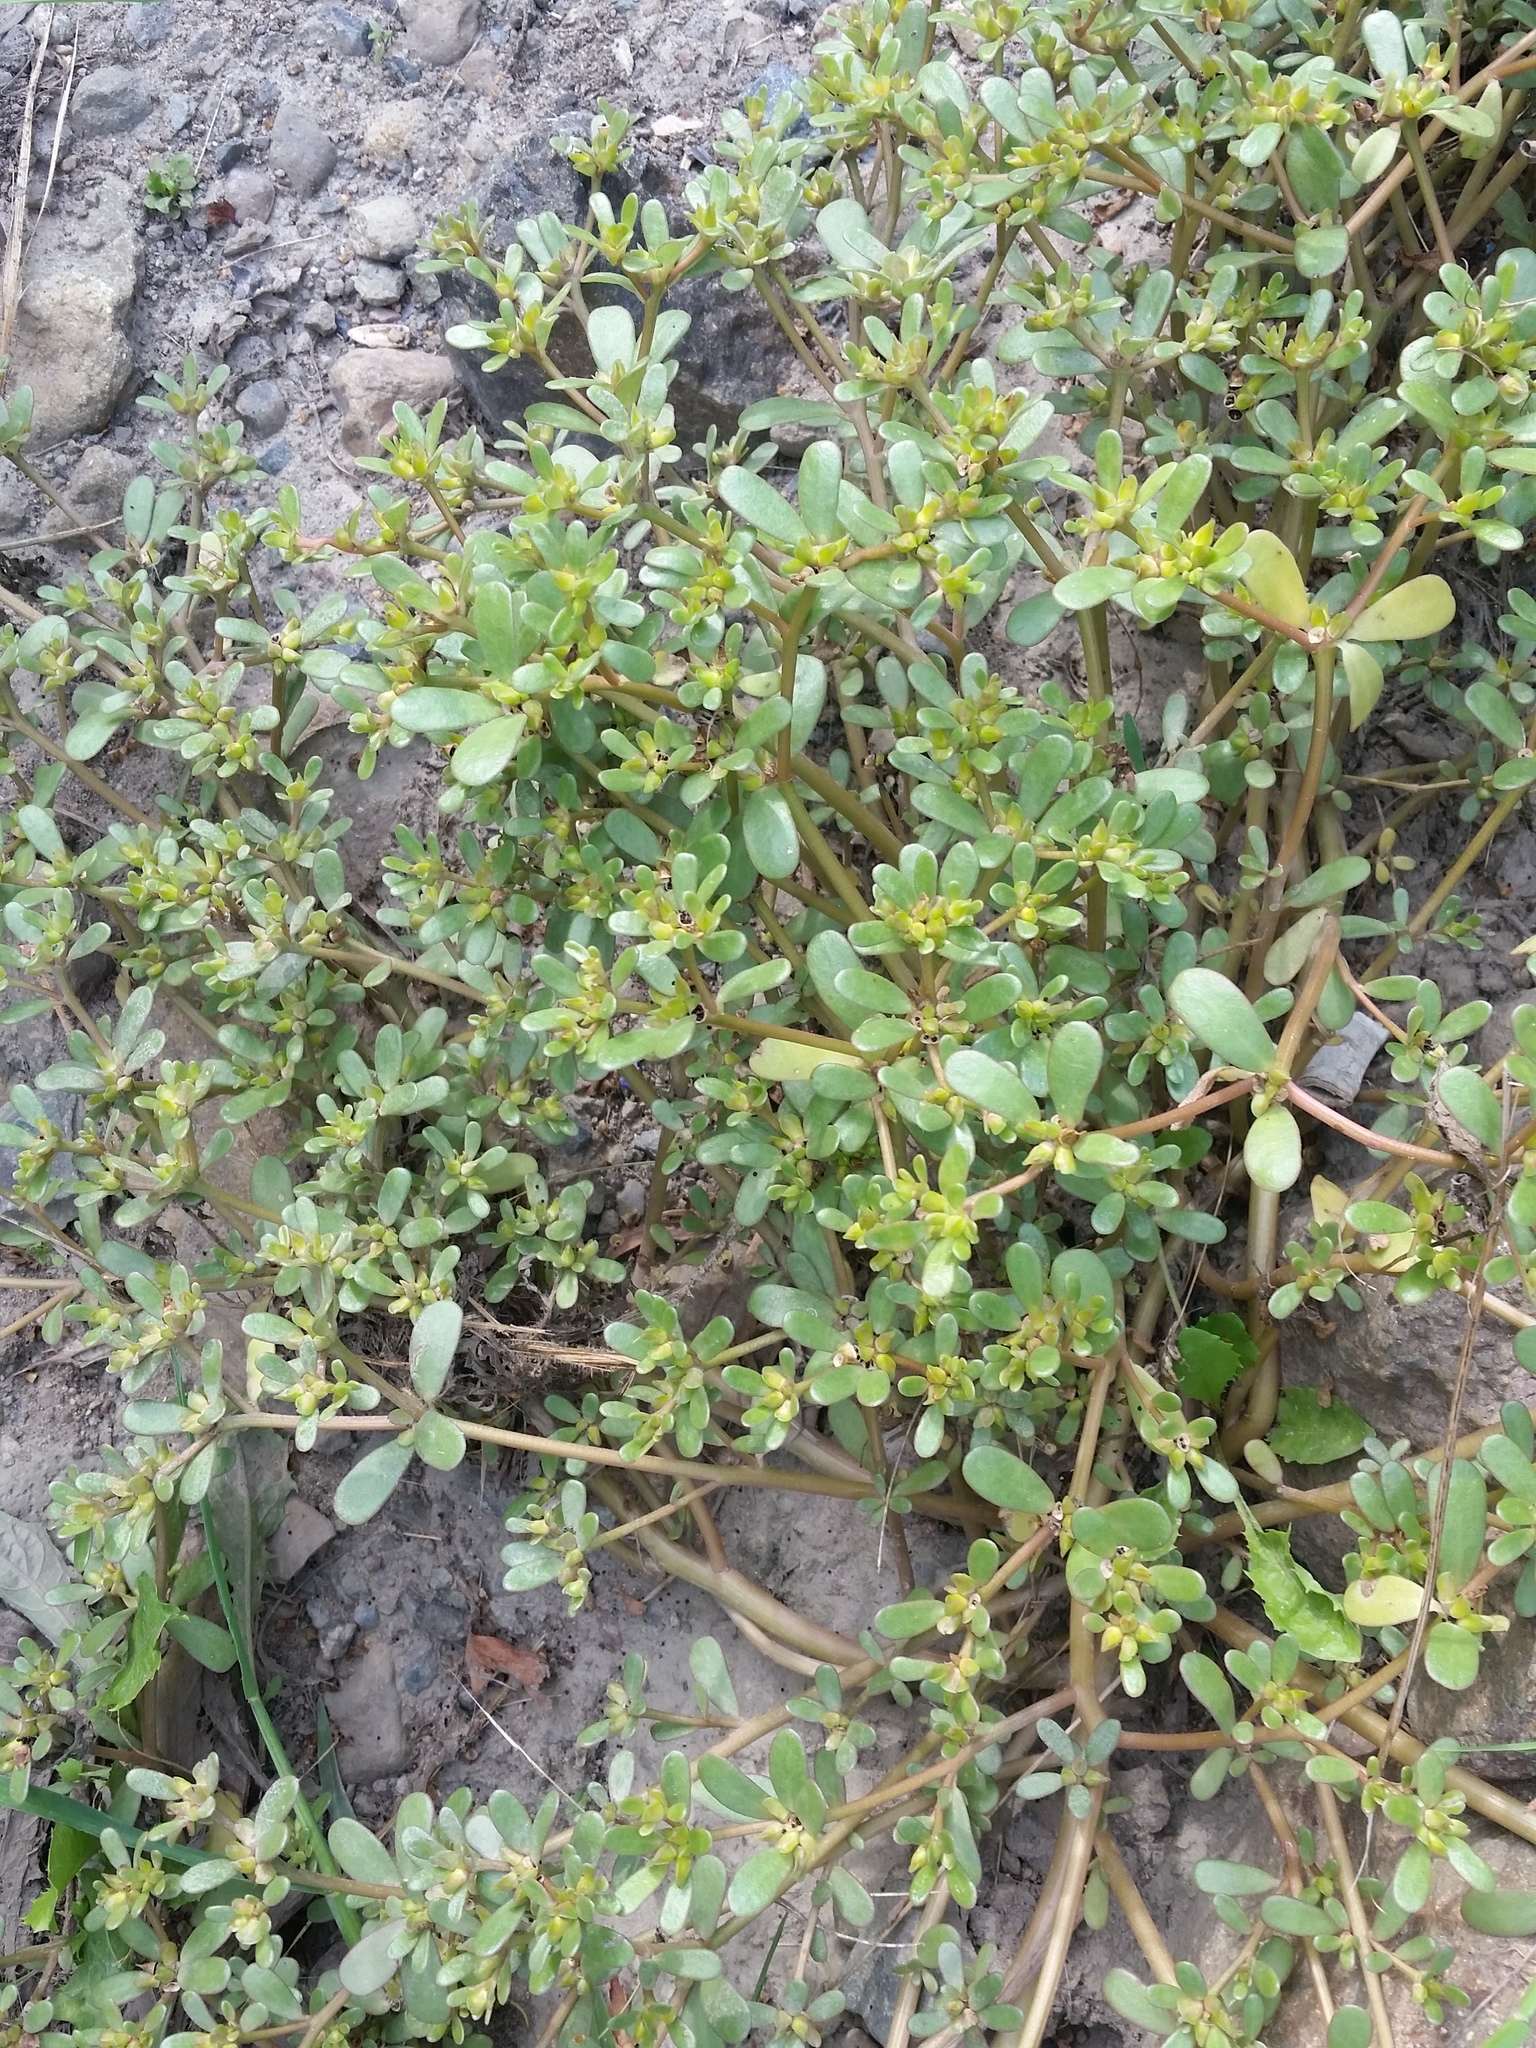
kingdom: Plantae
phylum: Tracheophyta
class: Magnoliopsida
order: Caryophyllales
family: Portulacaceae
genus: Portulaca
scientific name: Portulaca oleracea
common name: Common purslane
